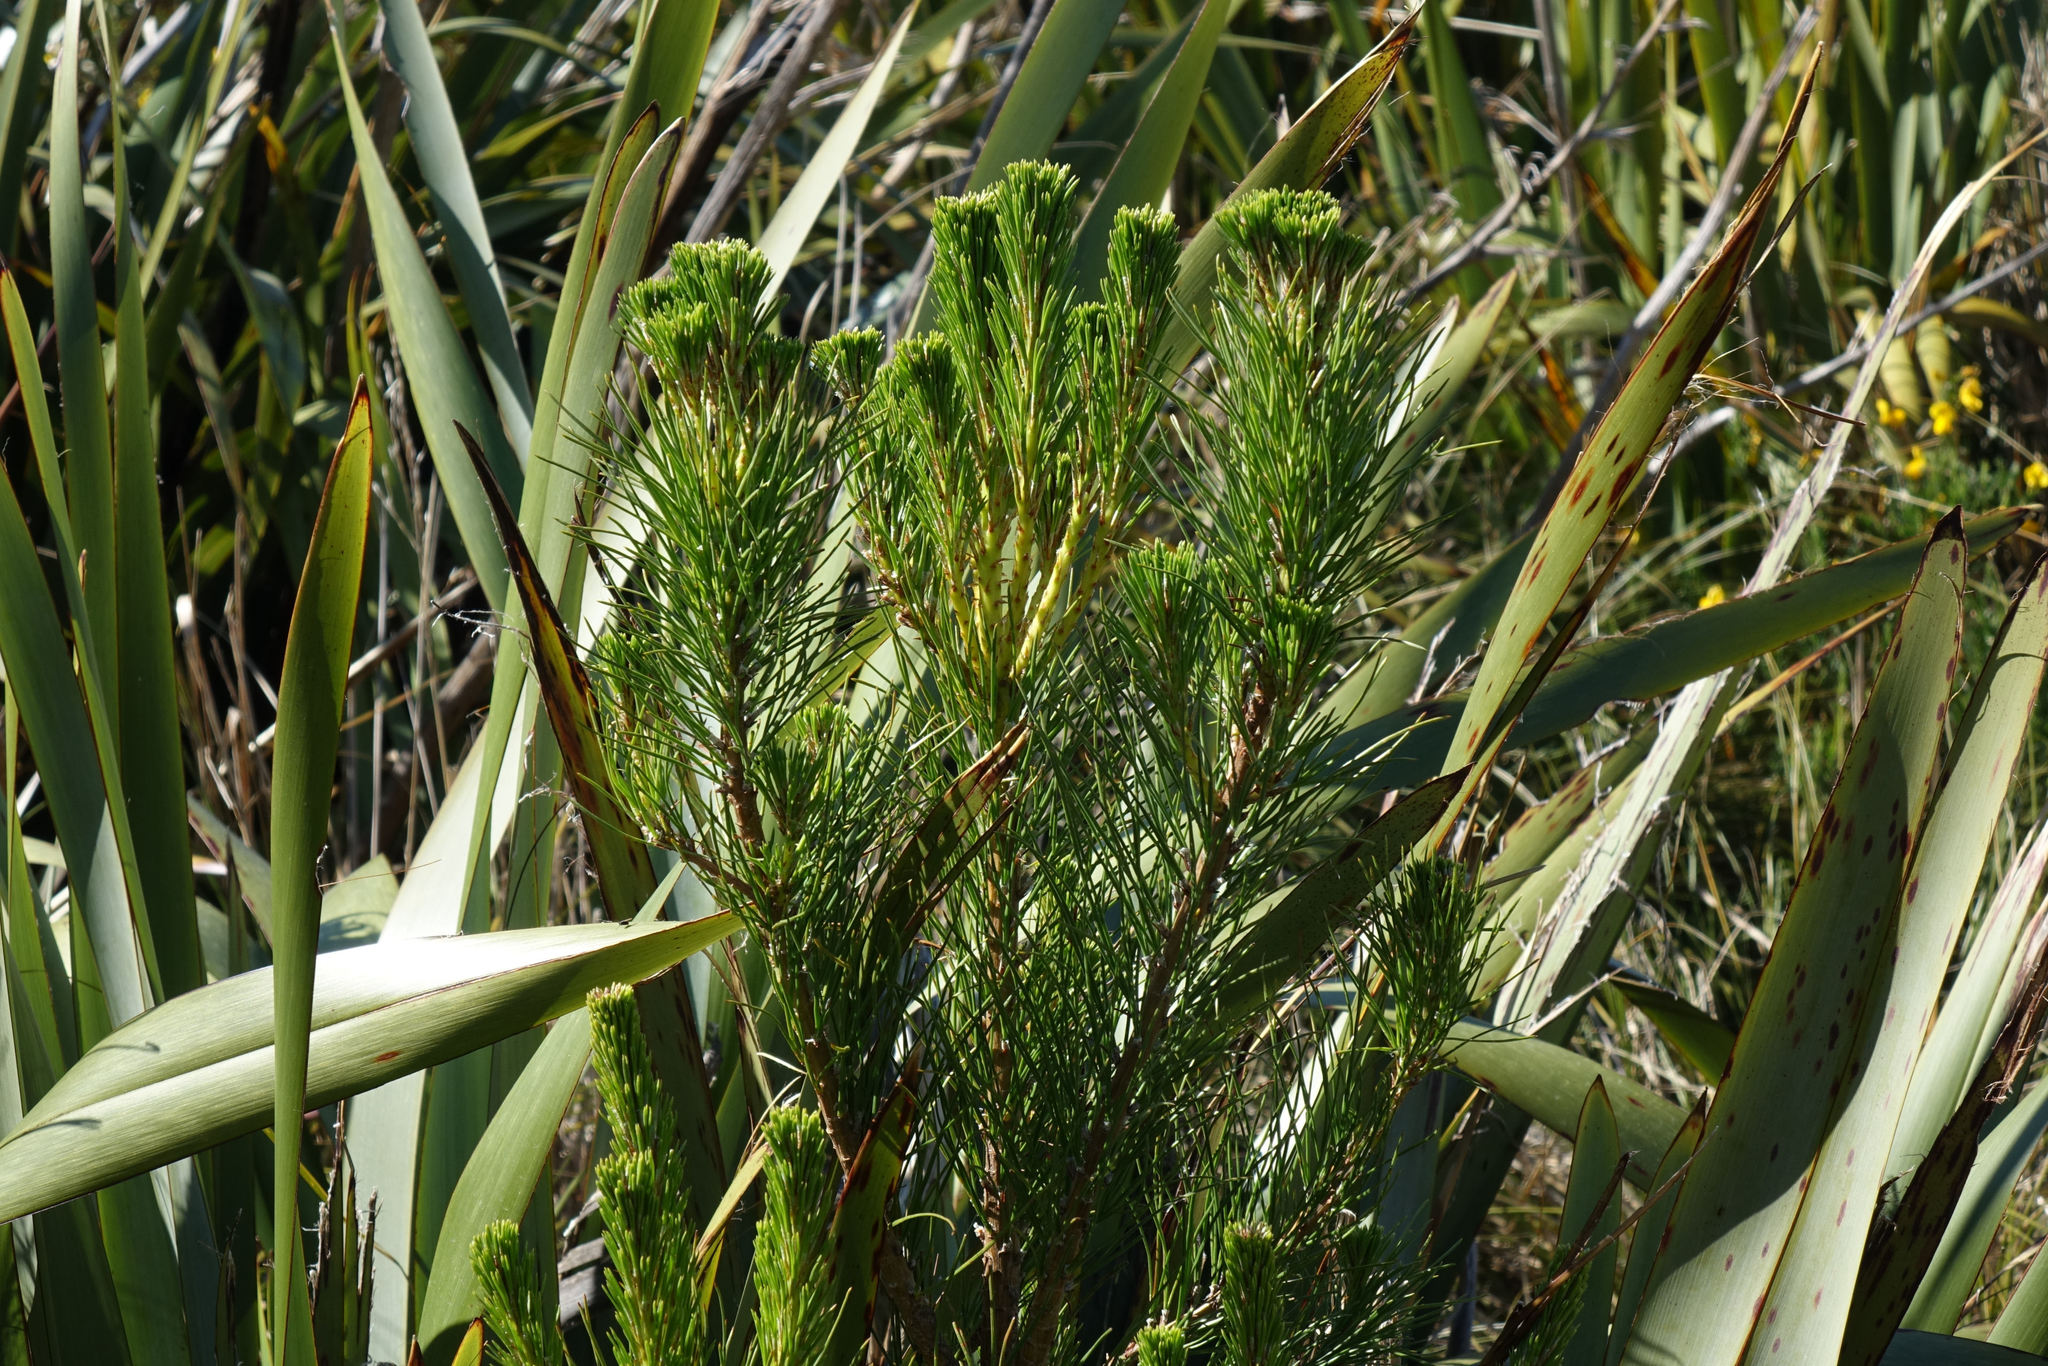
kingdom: Plantae
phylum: Tracheophyta
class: Pinopsida
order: Pinales
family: Pinaceae
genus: Pinus
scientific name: Pinus radiata
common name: Monterey pine
